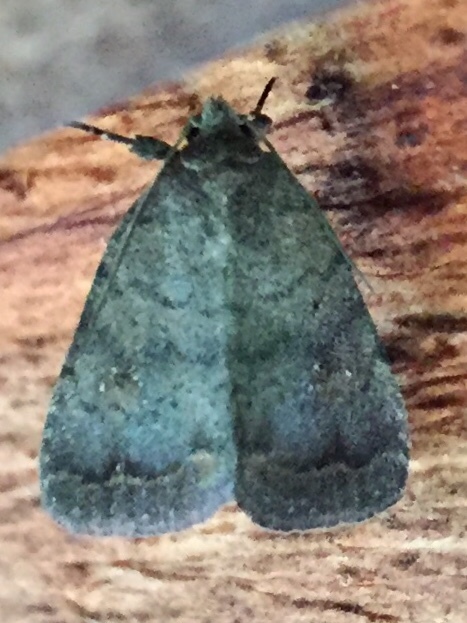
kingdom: Animalia
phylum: Arthropoda
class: Insecta
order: Lepidoptera
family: Noctuidae
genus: Athetis
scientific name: Athetis tarda
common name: Slowpoke moth
